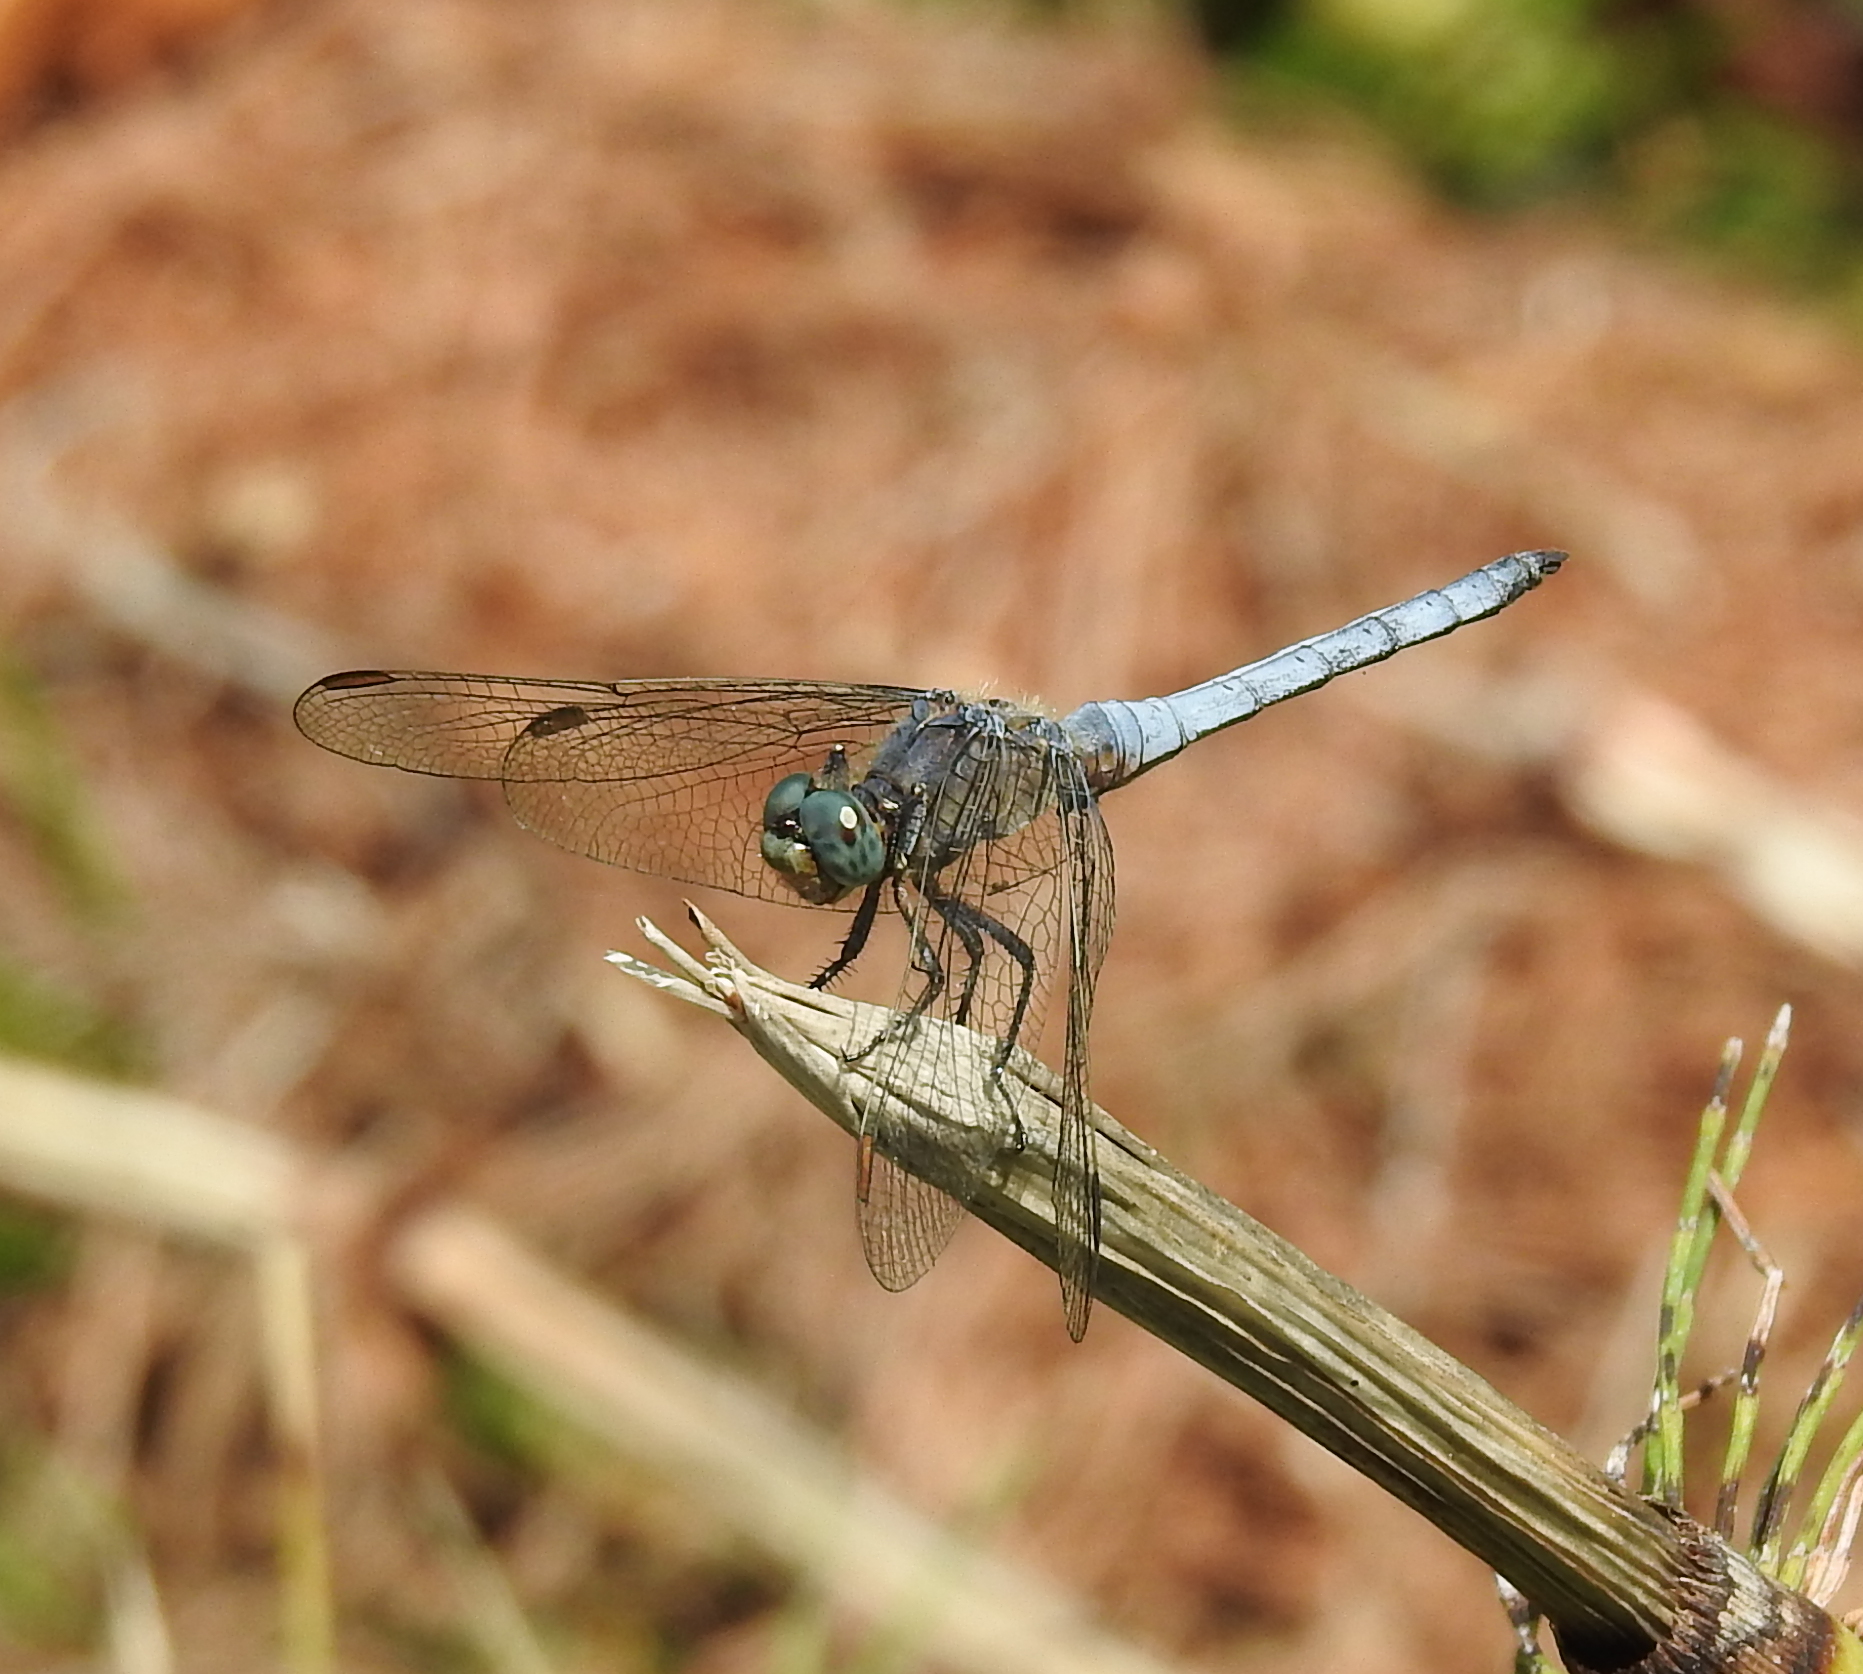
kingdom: Animalia
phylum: Arthropoda
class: Insecta
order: Odonata
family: Libellulidae
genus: Orthetrum
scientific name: Orthetrum coerulescens
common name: Keeled skimmer
